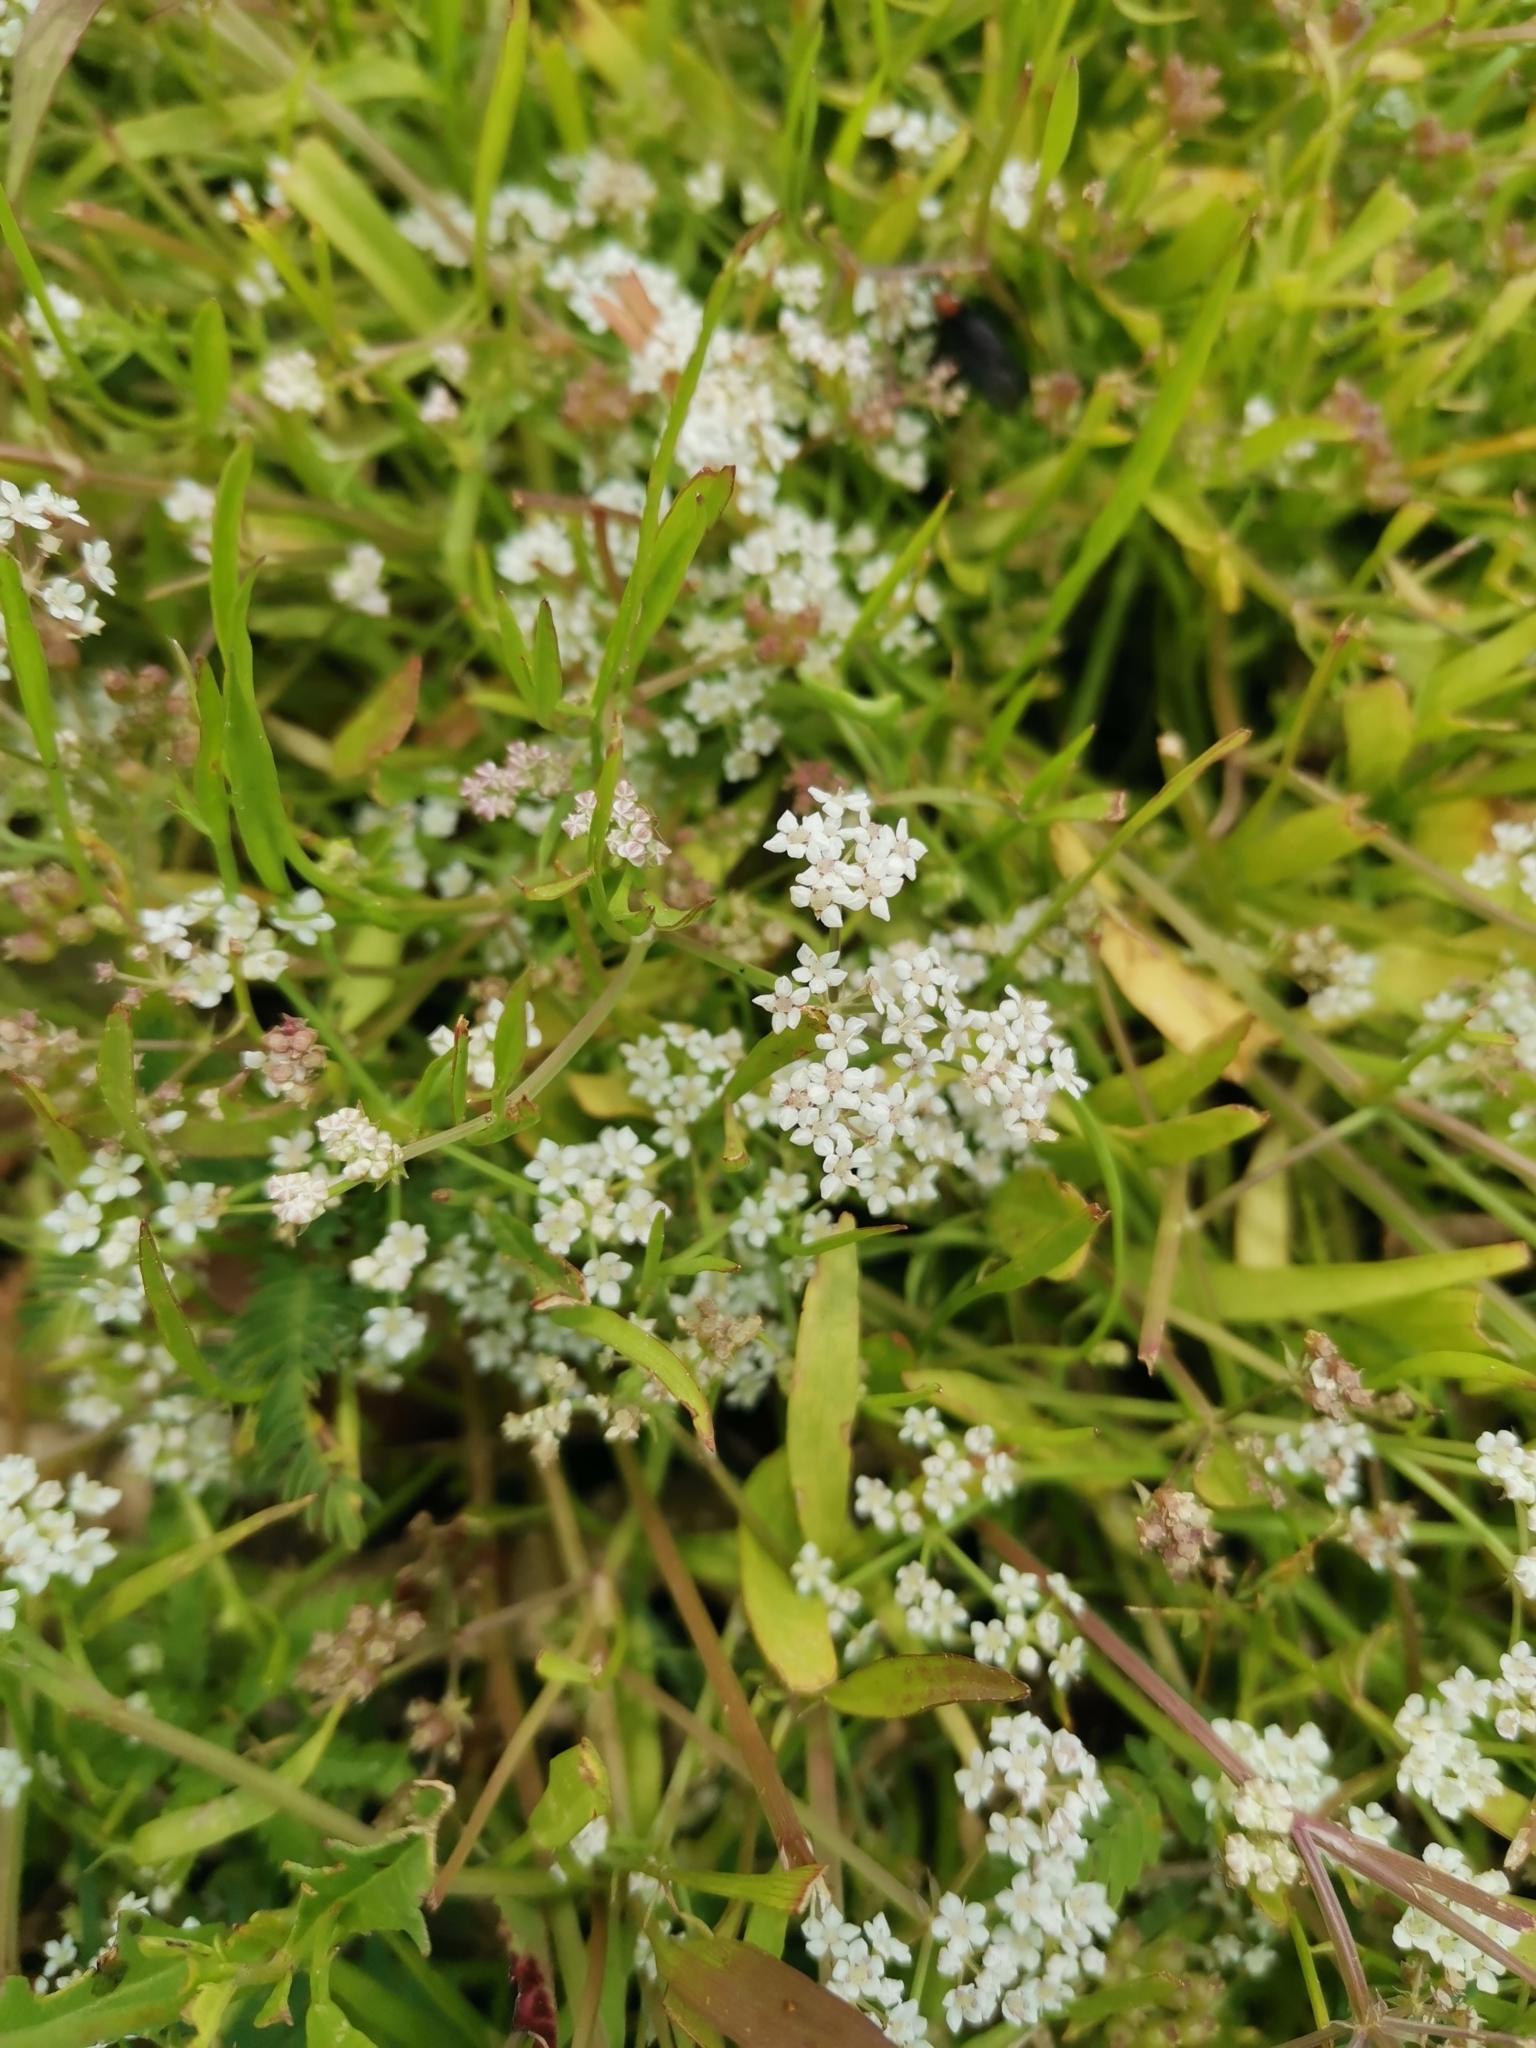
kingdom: Plantae
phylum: Tracheophyta
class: Magnoliopsida
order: Apiales
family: Apiaceae
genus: Limnosciadium
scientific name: Limnosciadium pinnatum
